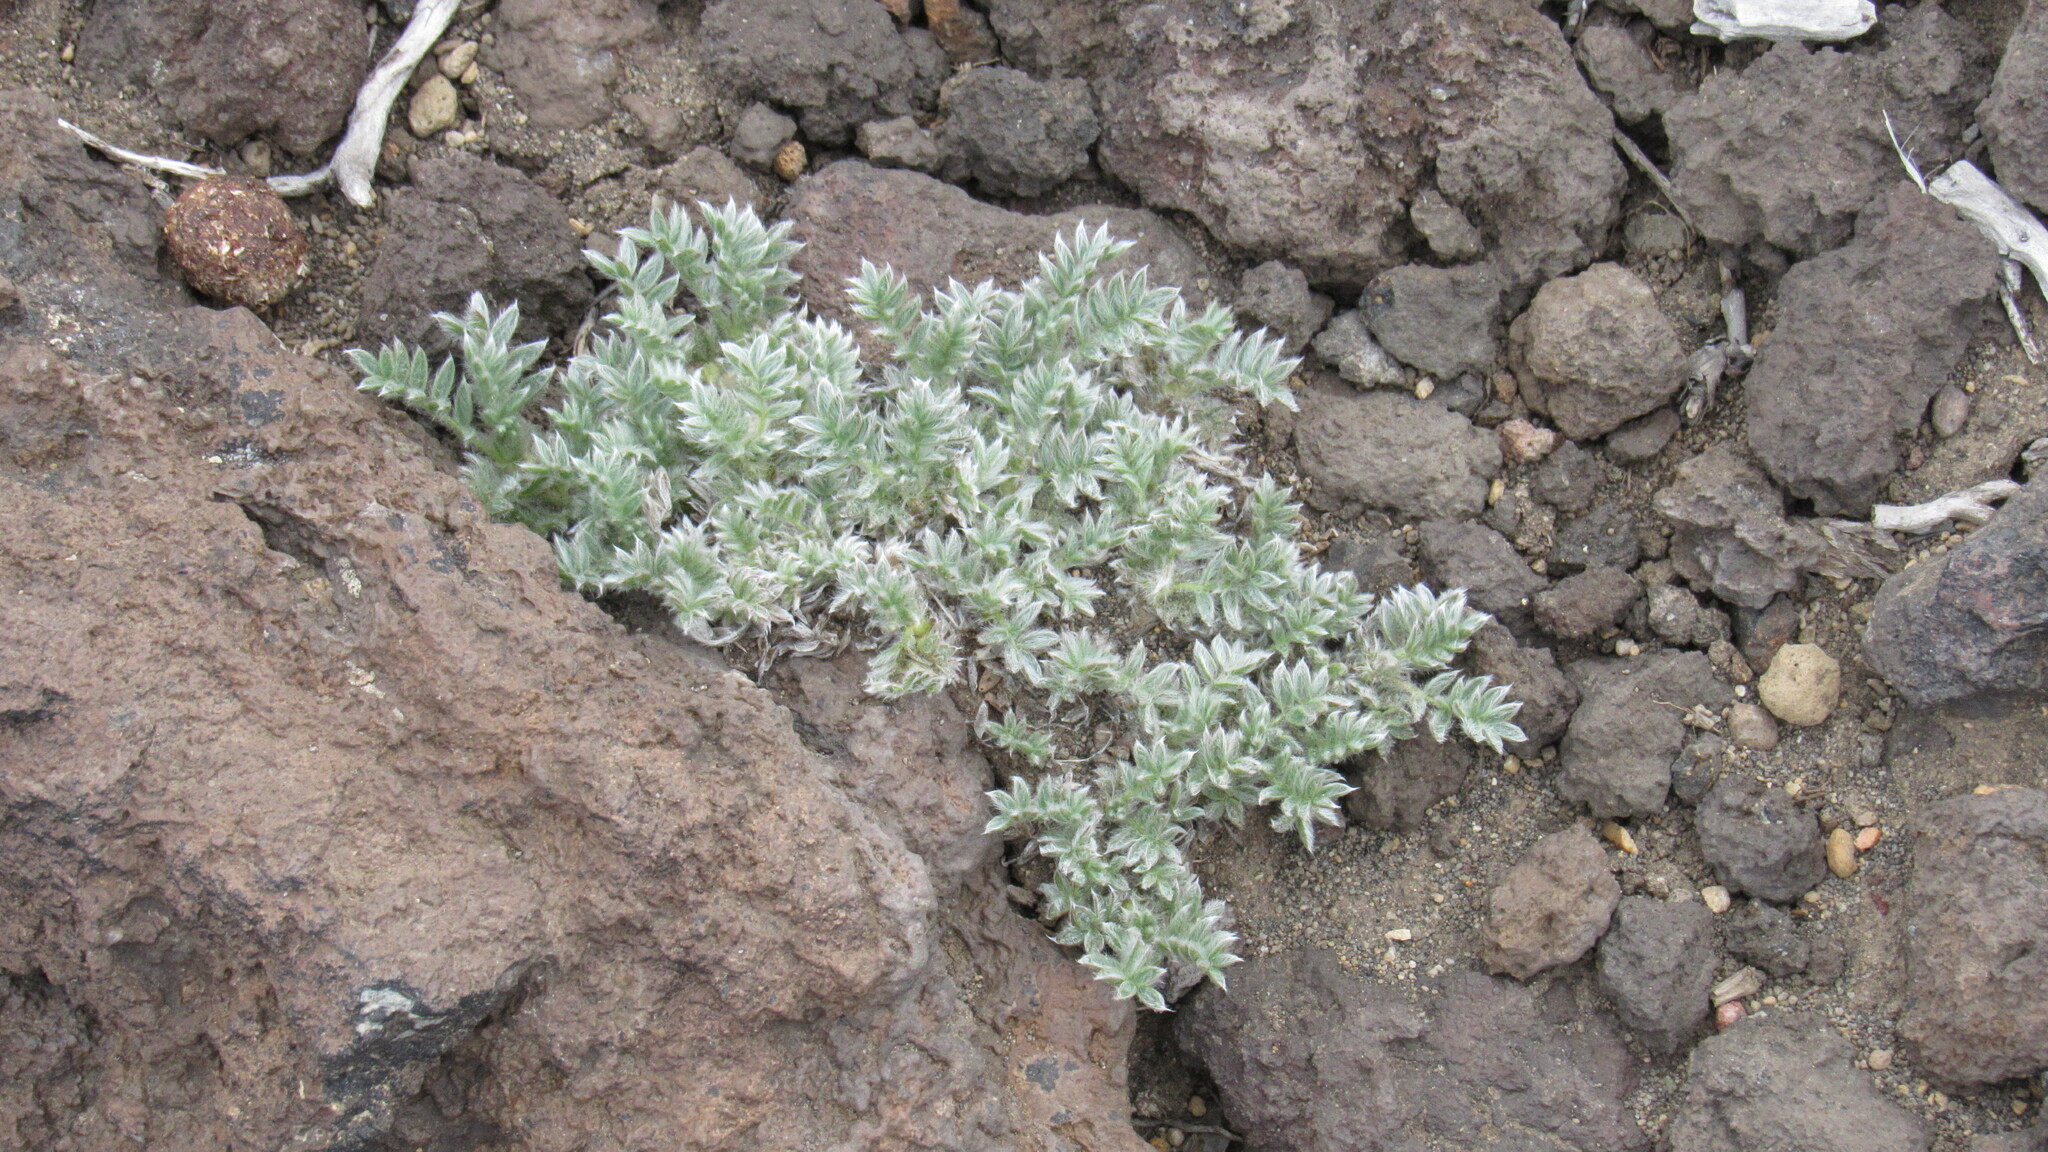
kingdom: Plantae
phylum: Tracheophyta
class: Magnoliopsida
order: Fabales
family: Fabaceae
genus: Oxytropis
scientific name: Oxytropis pumilio
